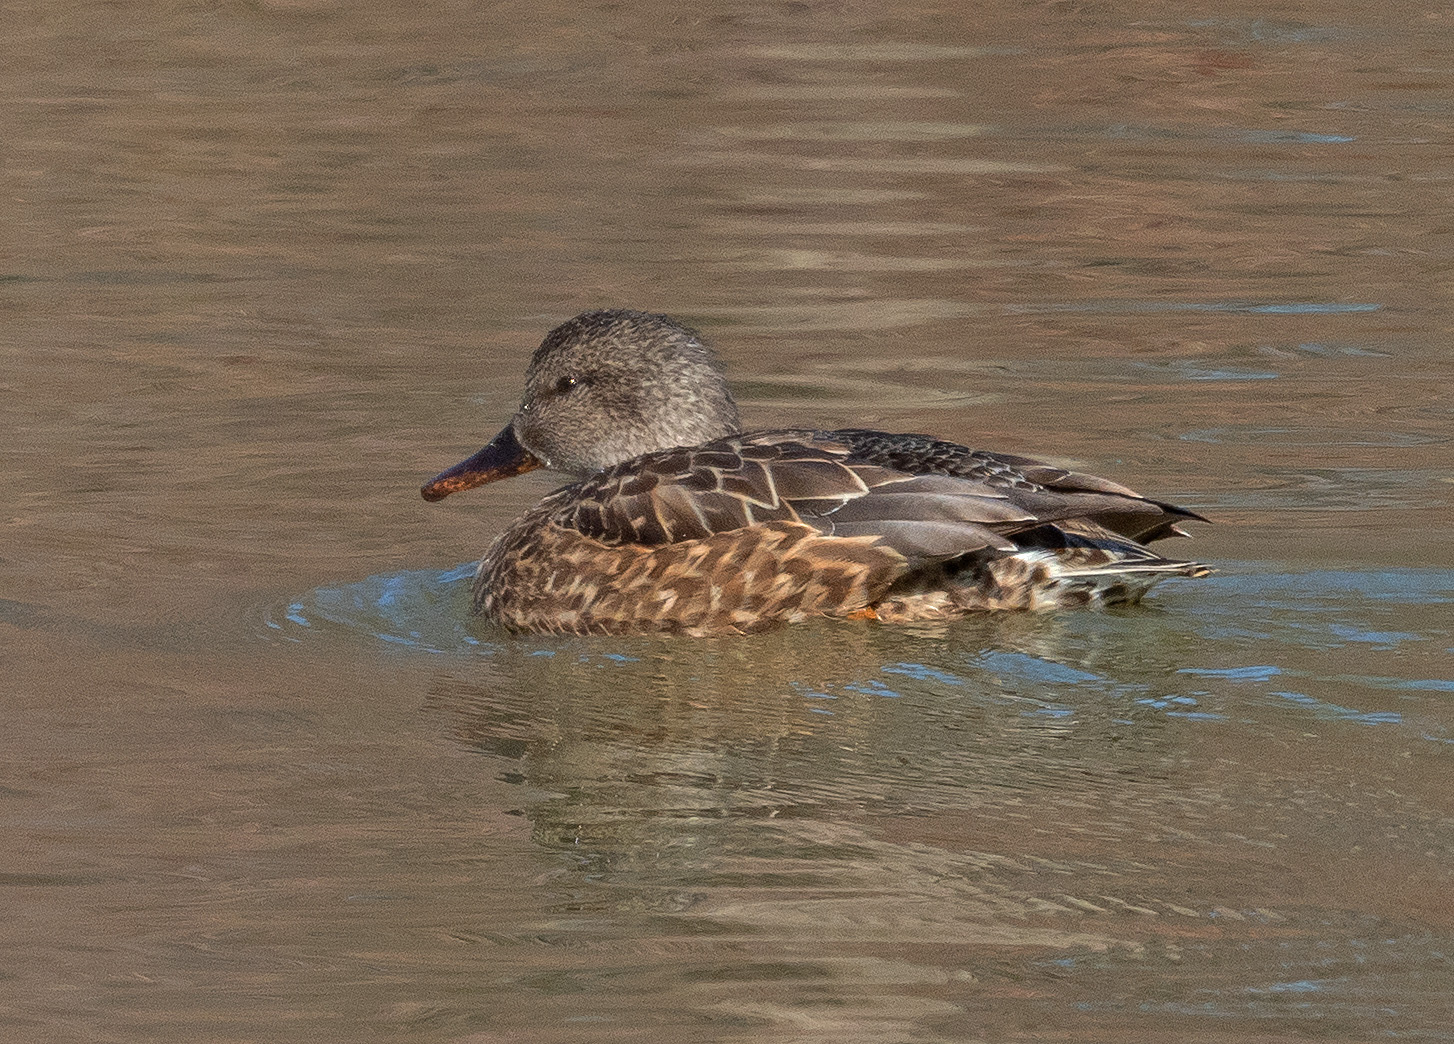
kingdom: Animalia
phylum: Chordata
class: Aves
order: Anseriformes
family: Anatidae
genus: Mareca
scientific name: Mareca strepera
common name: Gadwall
